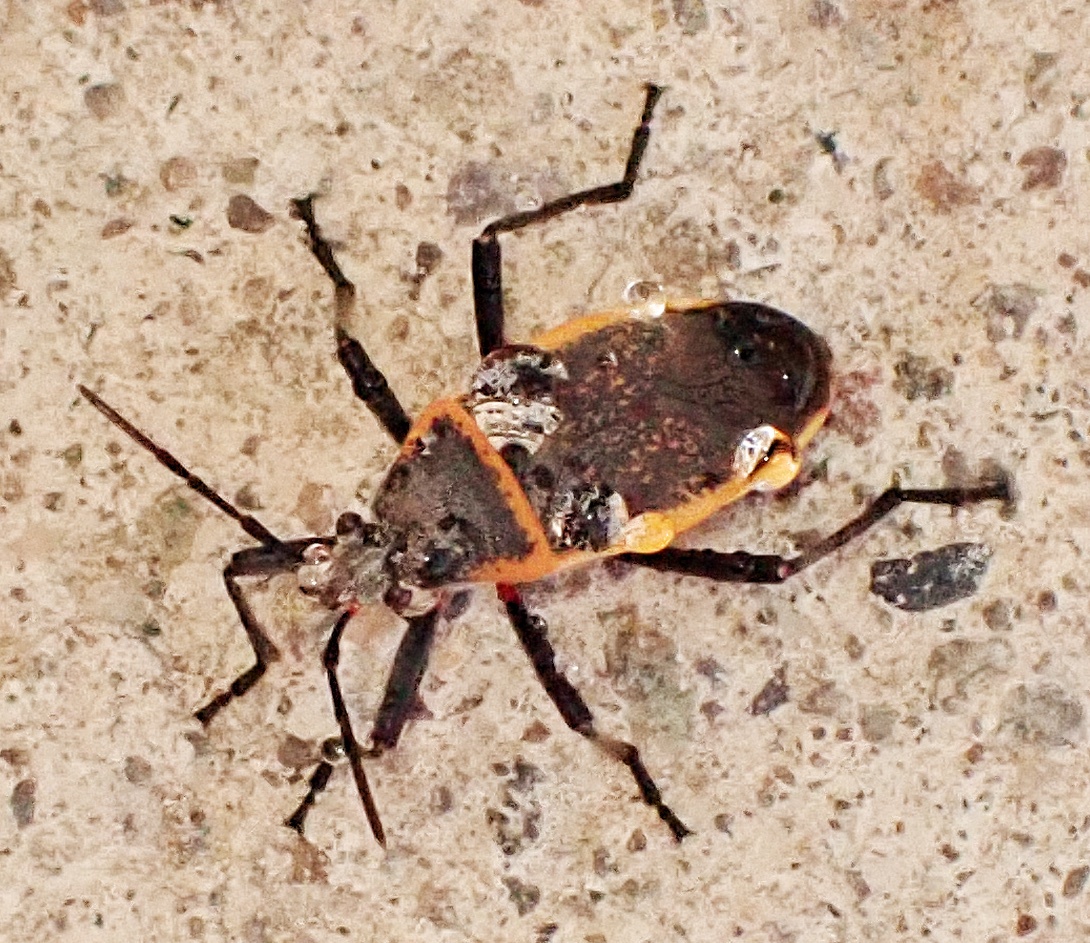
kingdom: Animalia
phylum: Arthropoda
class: Insecta
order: Hemiptera
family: Largidae
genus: Largus
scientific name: Largus californicus
